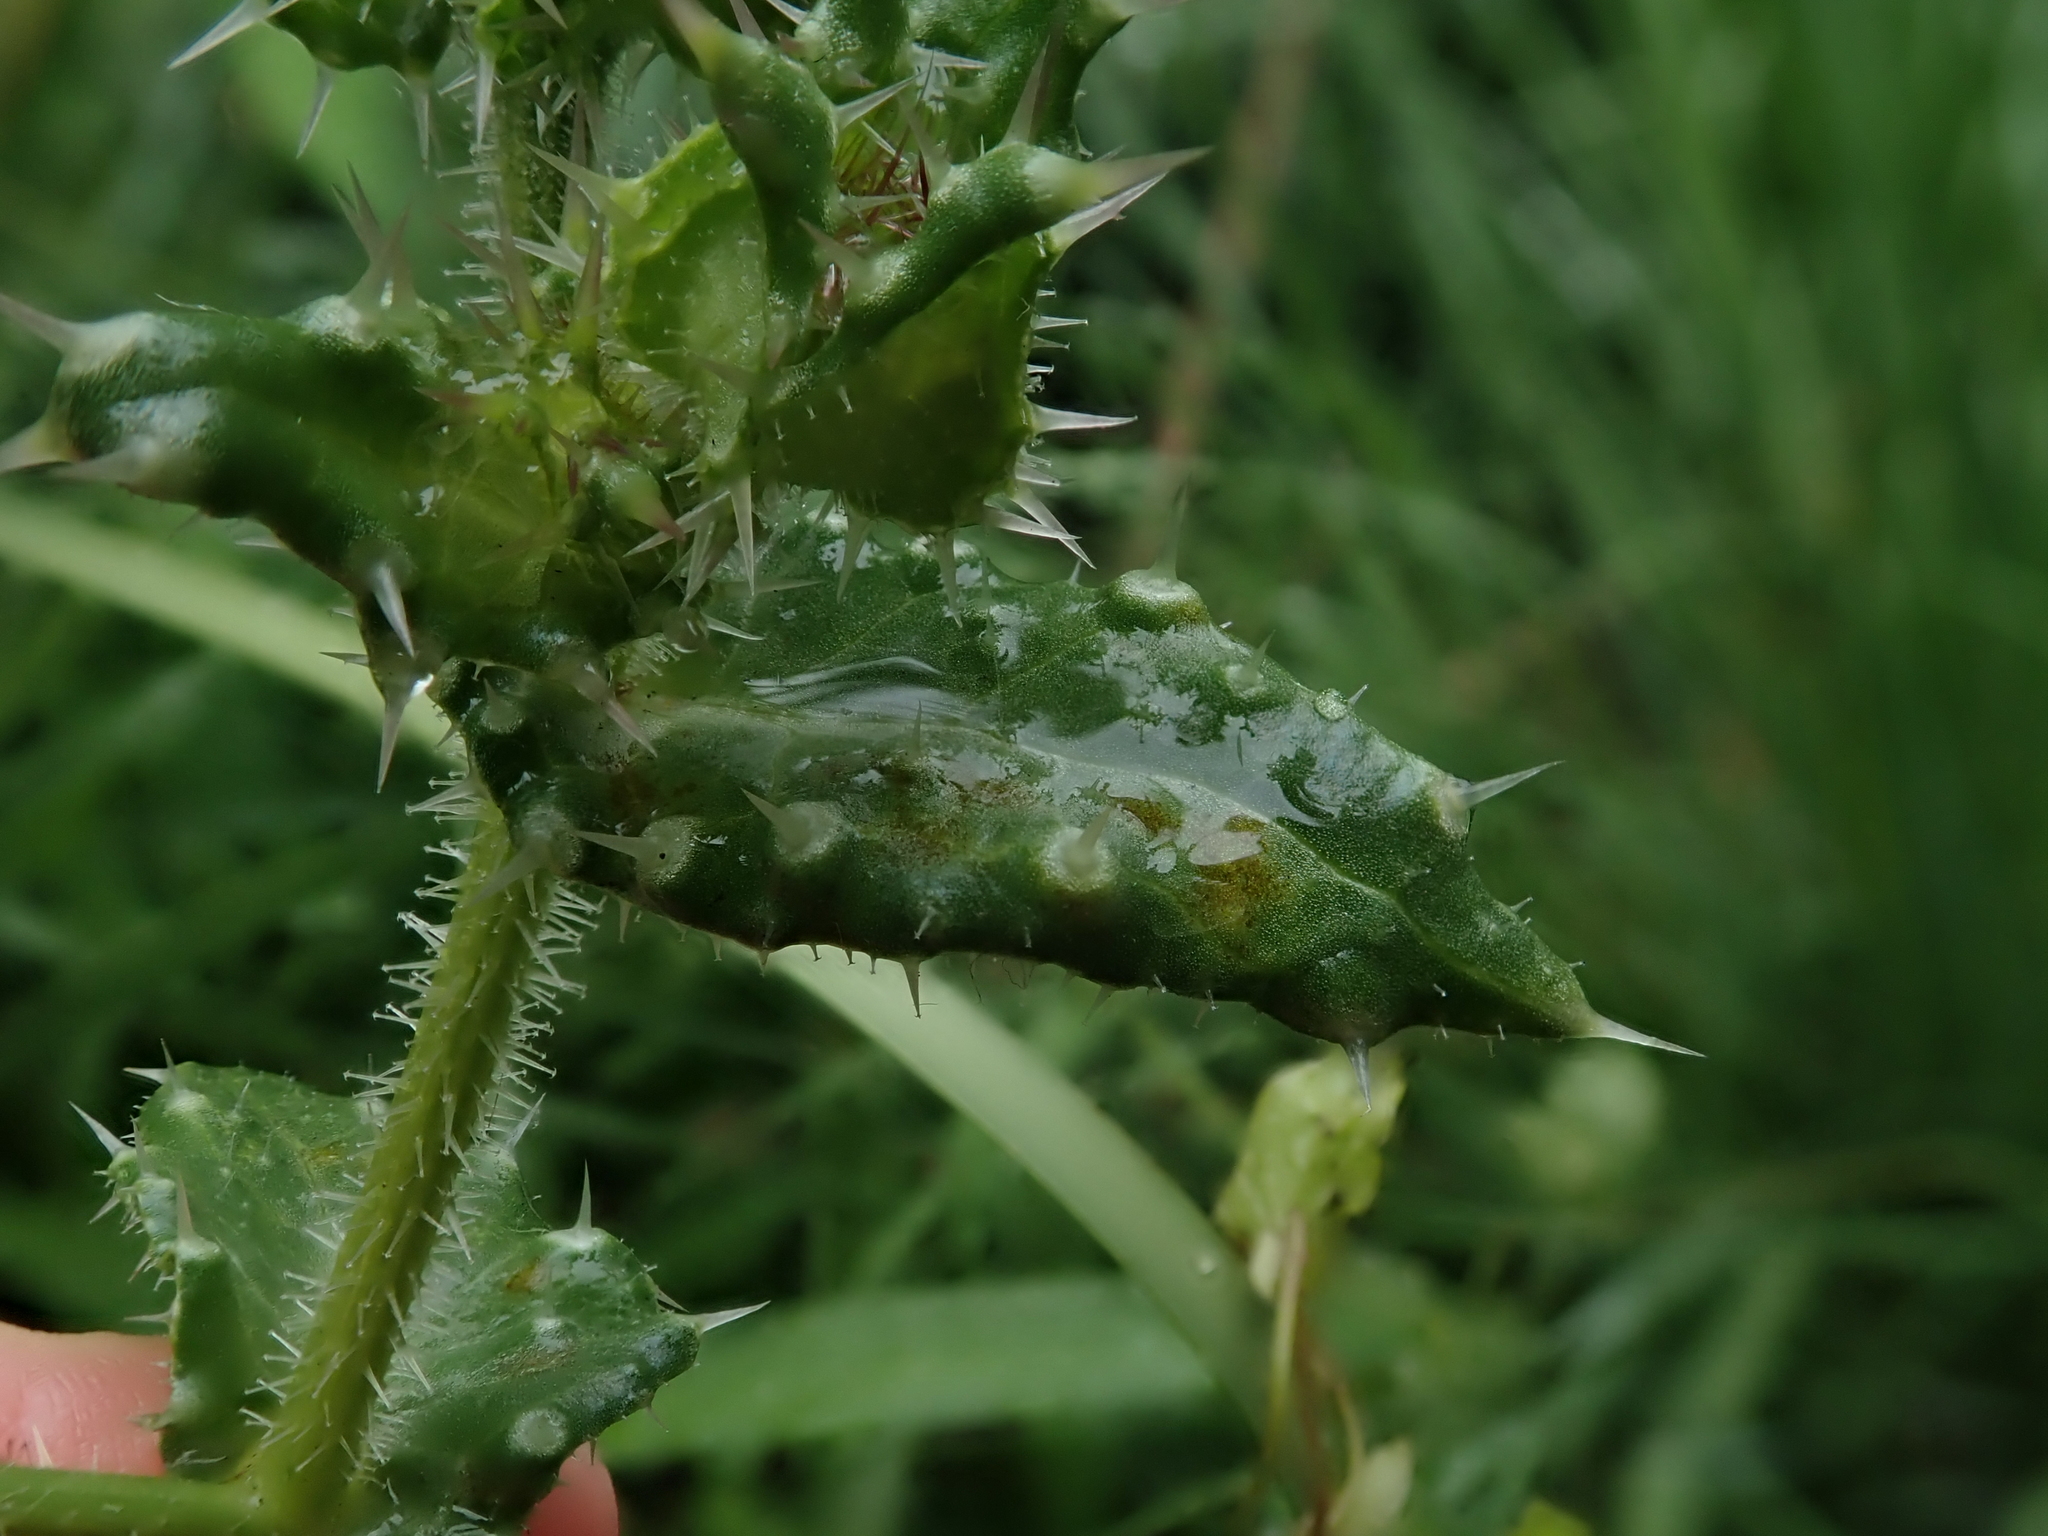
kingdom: Plantae
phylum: Tracheophyta
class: Magnoliopsida
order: Asterales
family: Asteraceae
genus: Helminthotheca
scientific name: Helminthotheca echioides
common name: Ox-tongue
